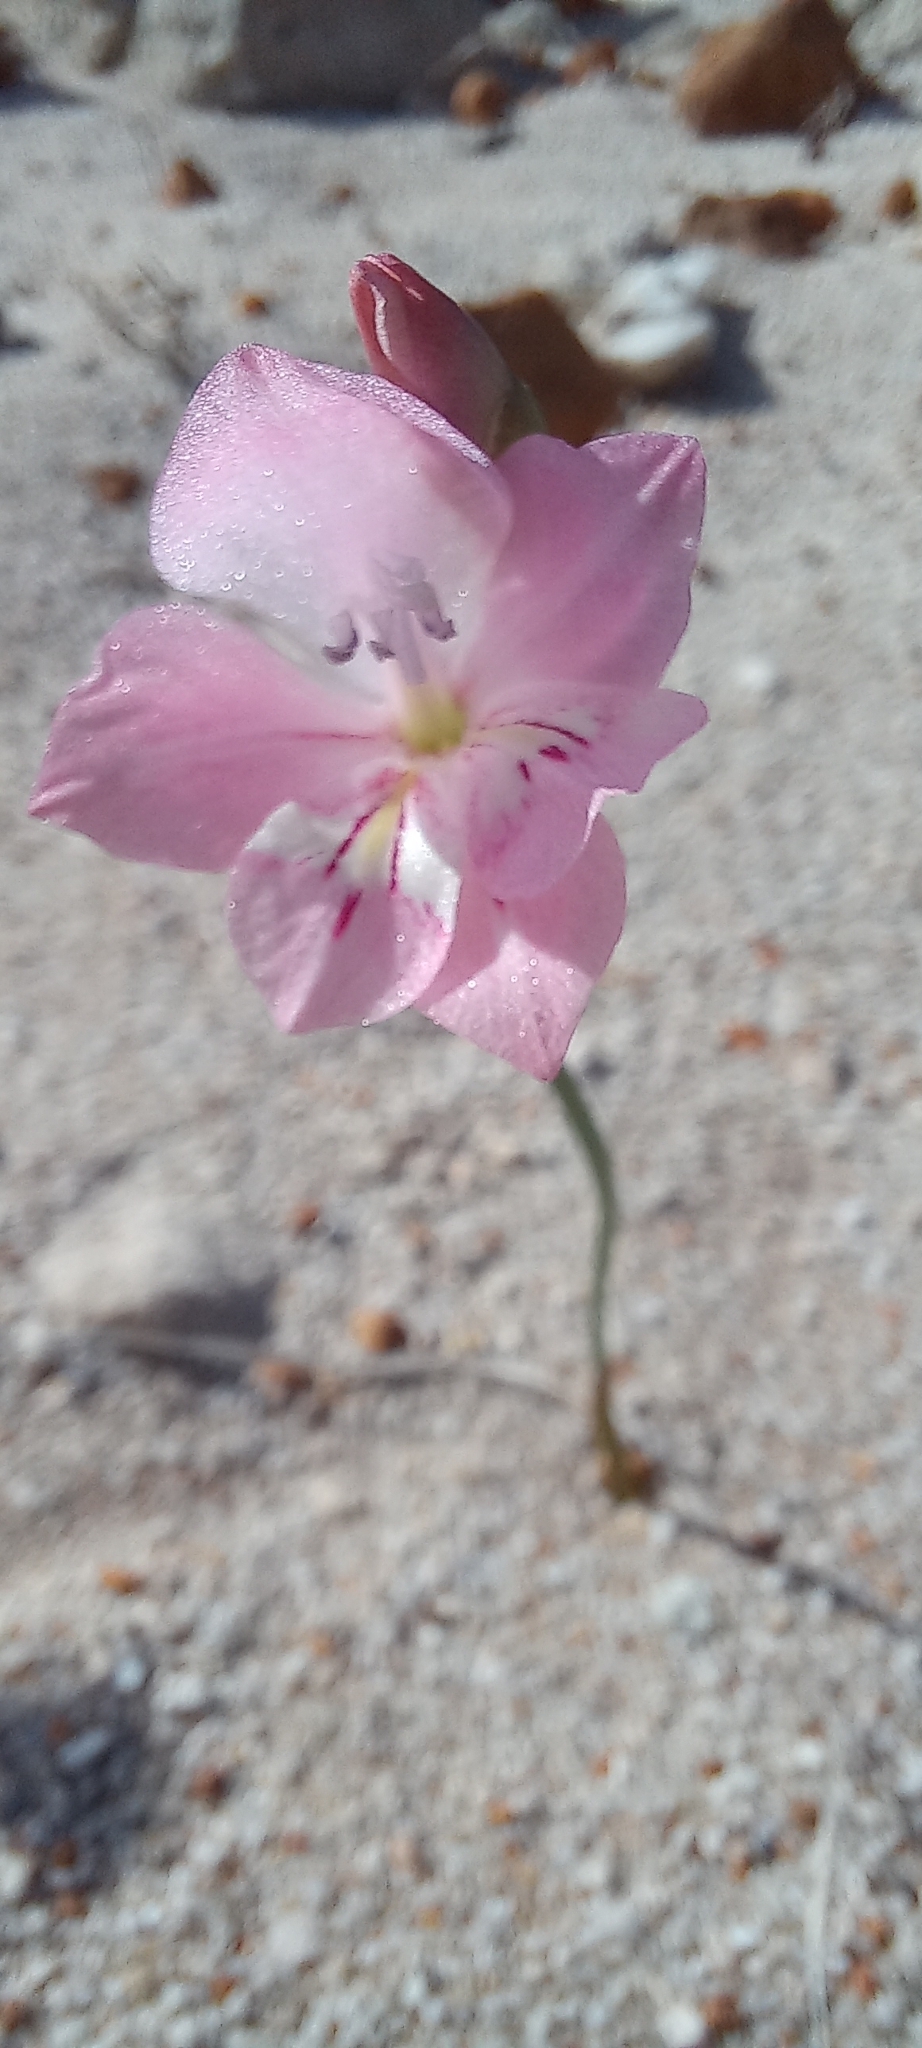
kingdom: Plantae
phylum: Tracheophyta
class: Liliopsida
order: Asparagales
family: Iridaceae
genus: Gladiolus
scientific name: Gladiolus brevifolius
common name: March pypie
